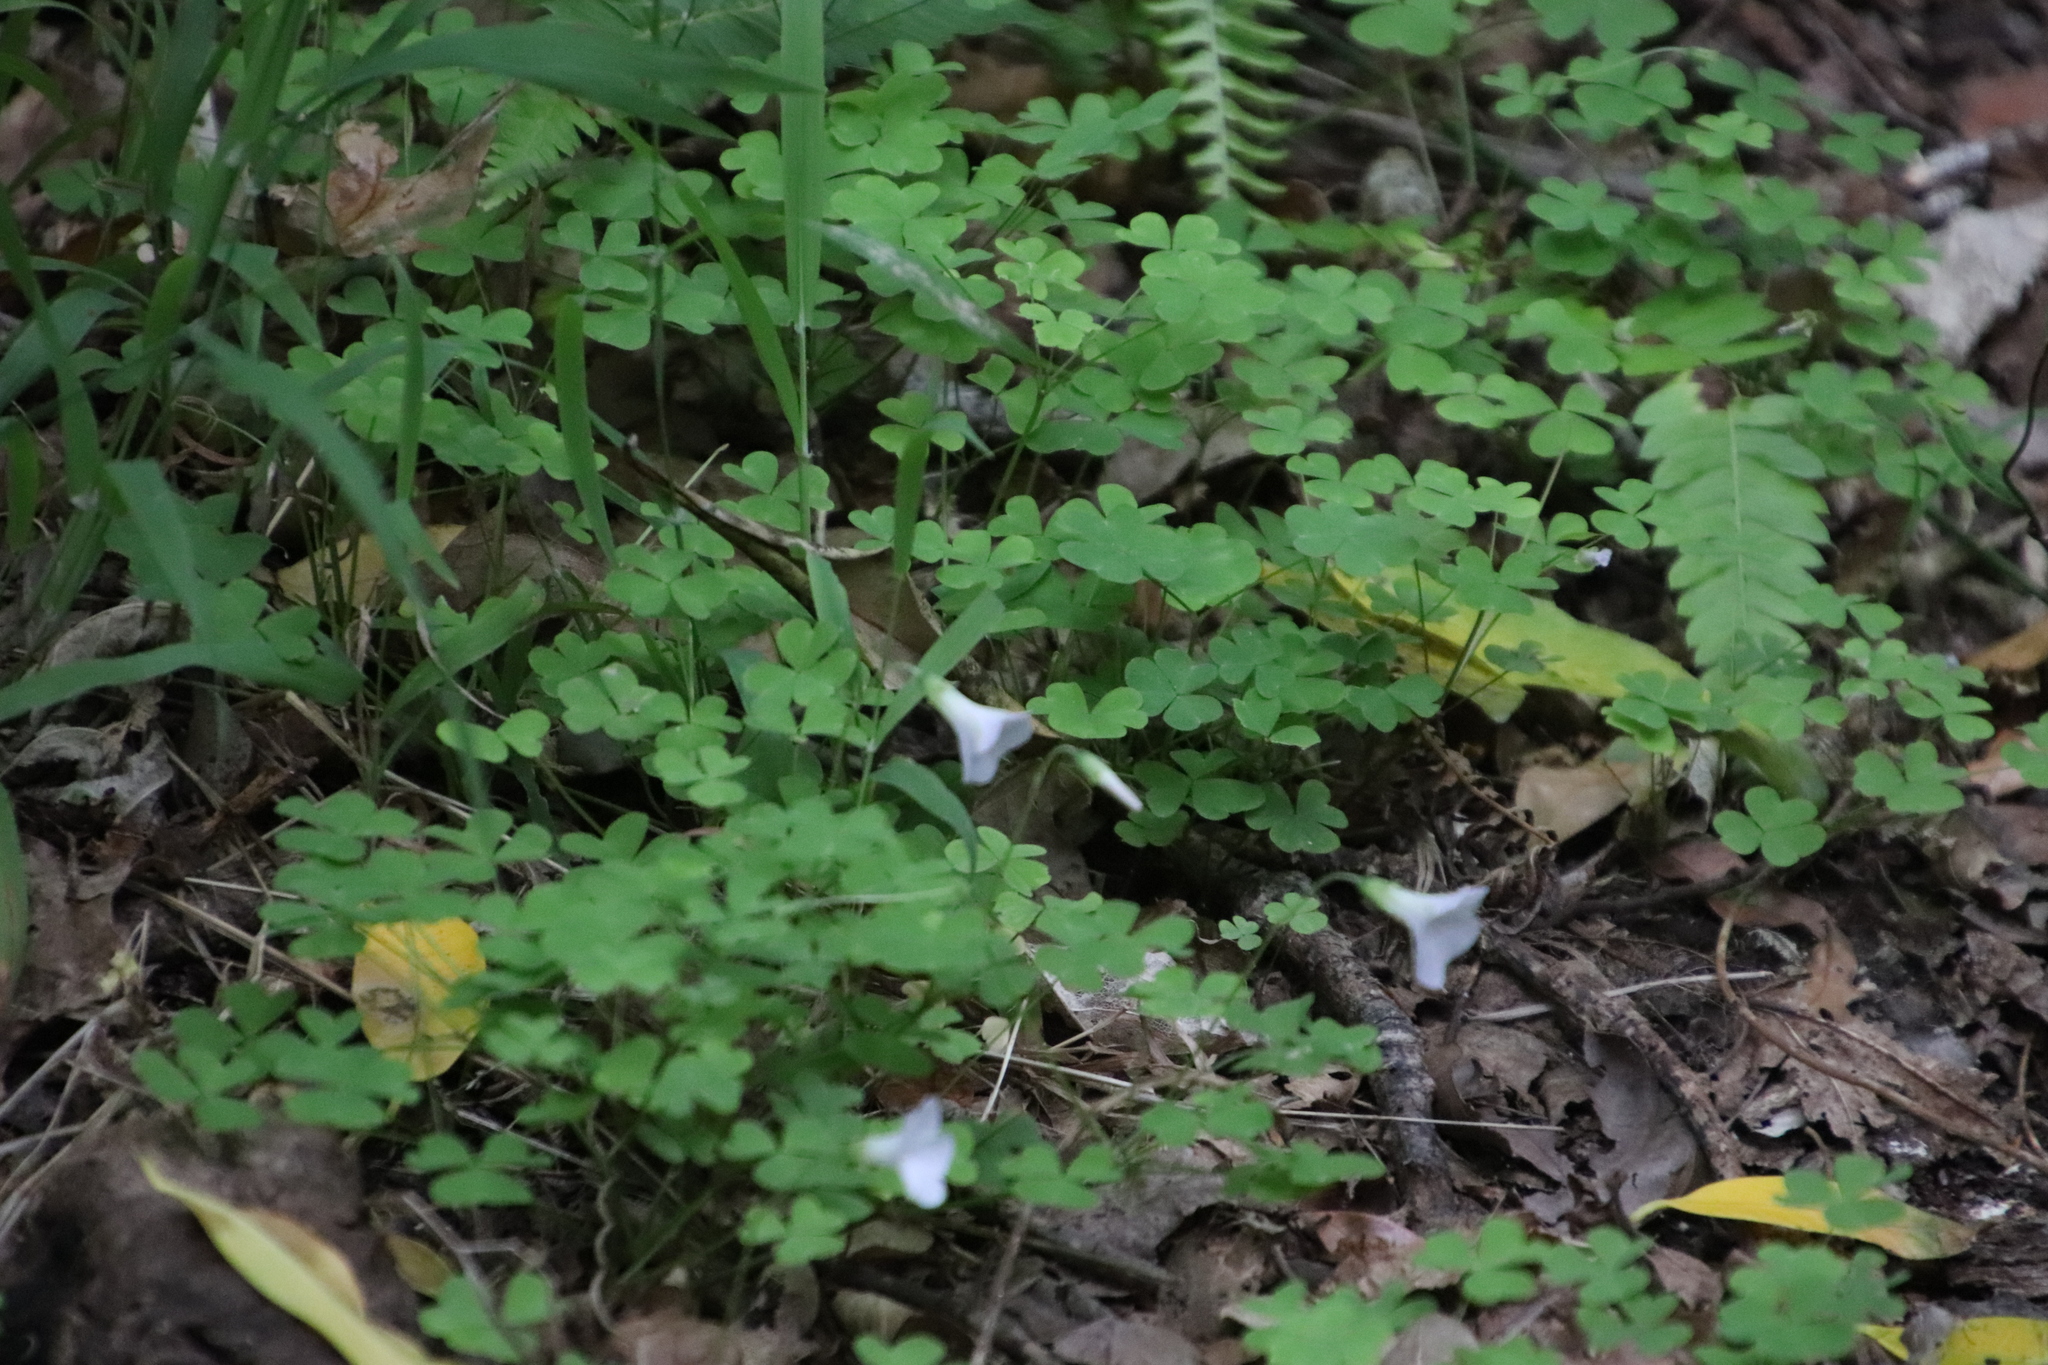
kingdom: Plantae
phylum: Tracheophyta
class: Magnoliopsida
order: Oxalidales
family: Oxalidaceae
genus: Oxalis
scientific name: Oxalis incarnata
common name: Pale pink-sorrel
